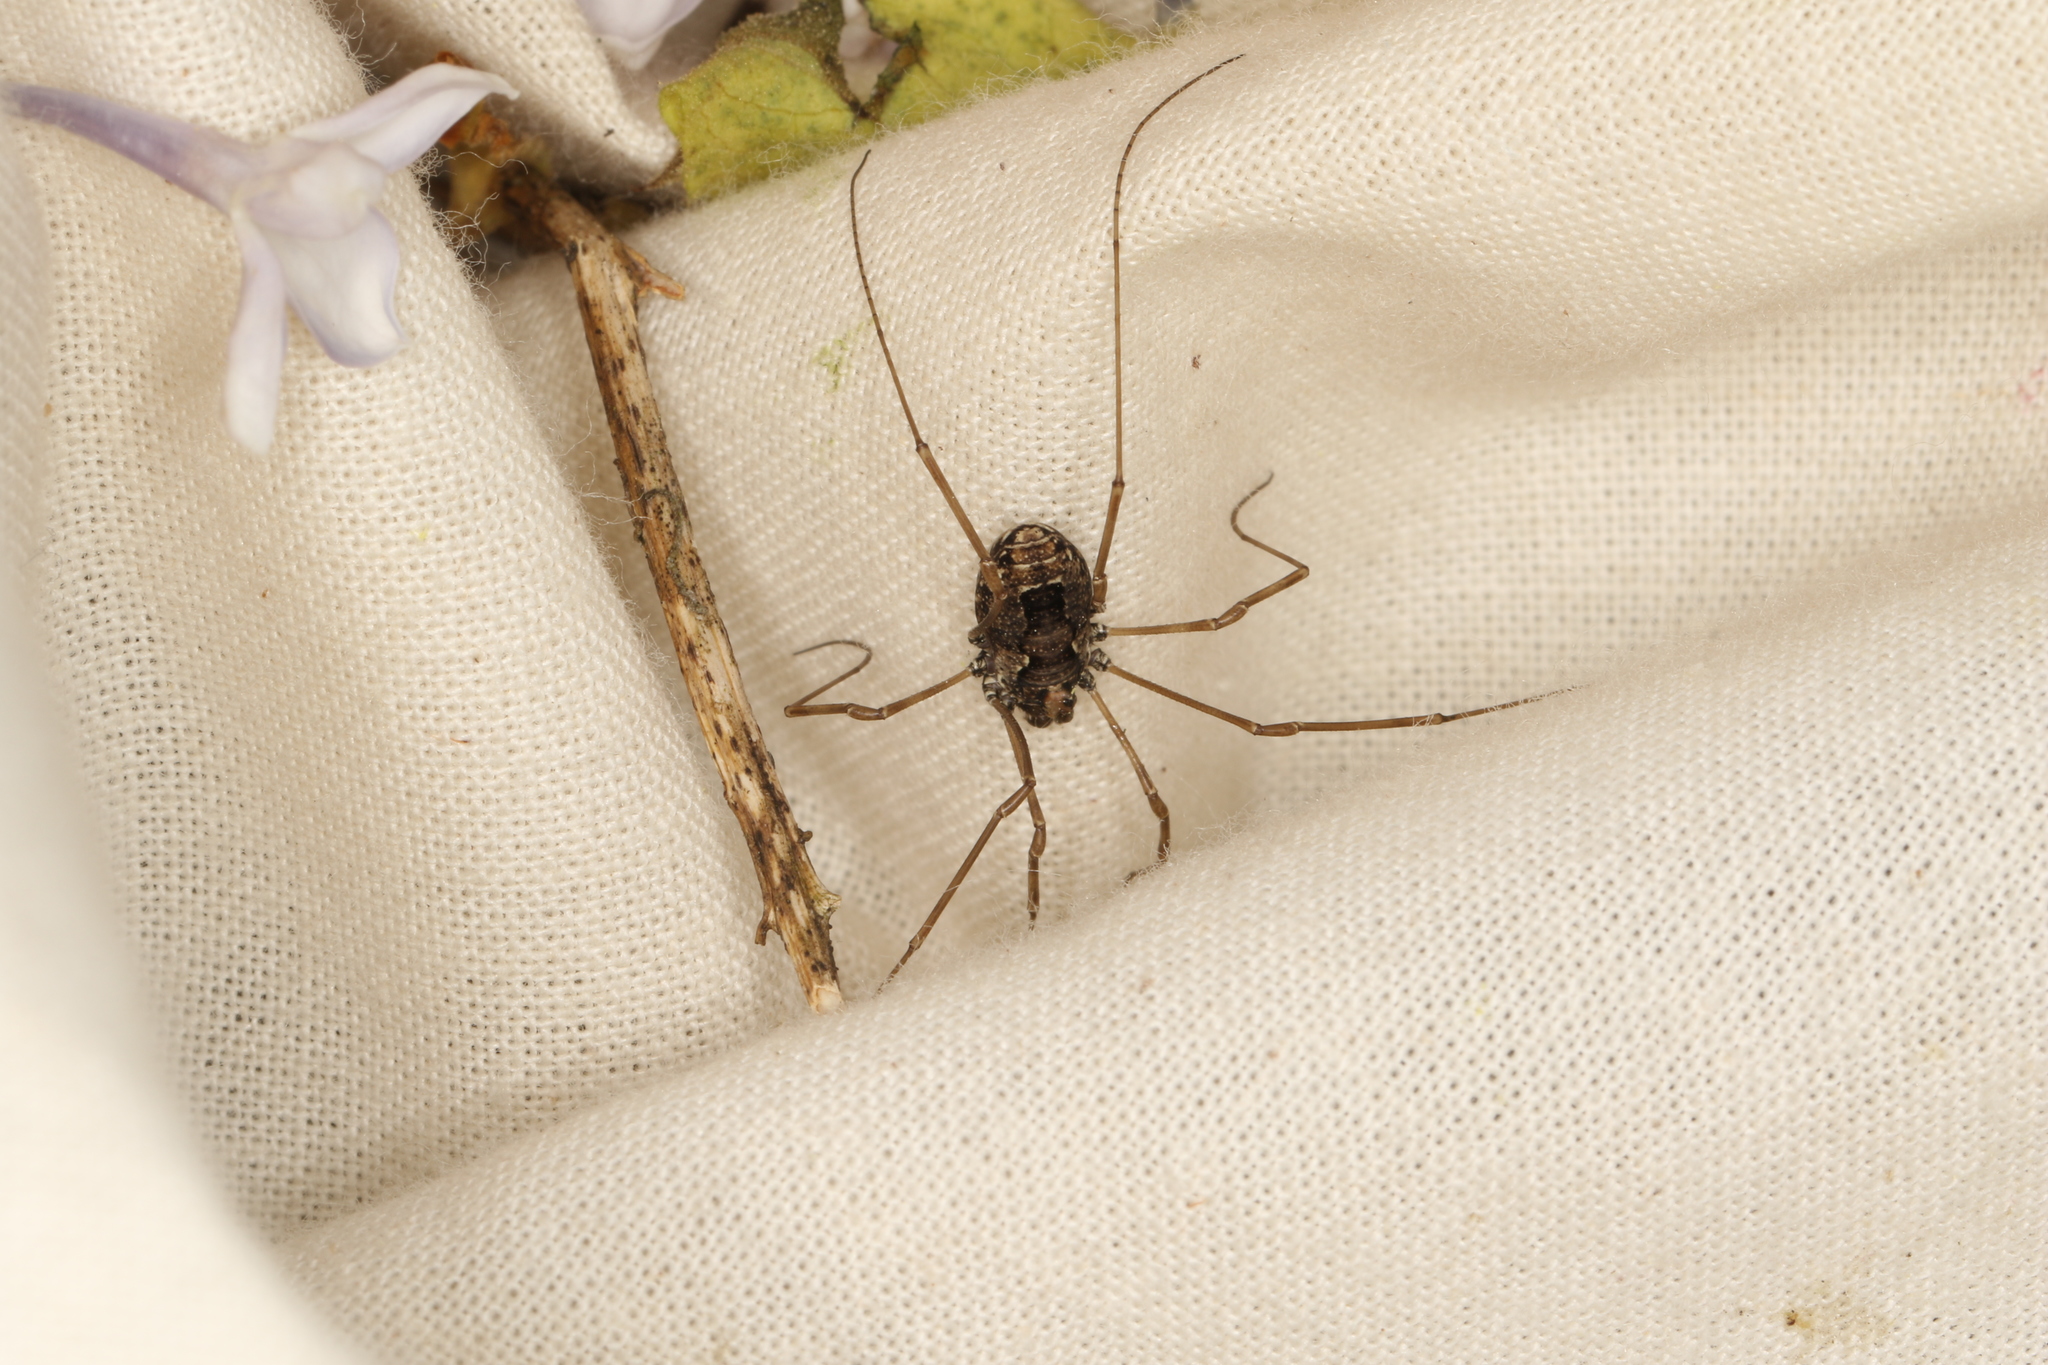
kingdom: Animalia
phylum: Arthropoda
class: Arachnida
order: Opiliones
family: Phalangiidae
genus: Platybunus
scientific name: Platybunus pinetorum
